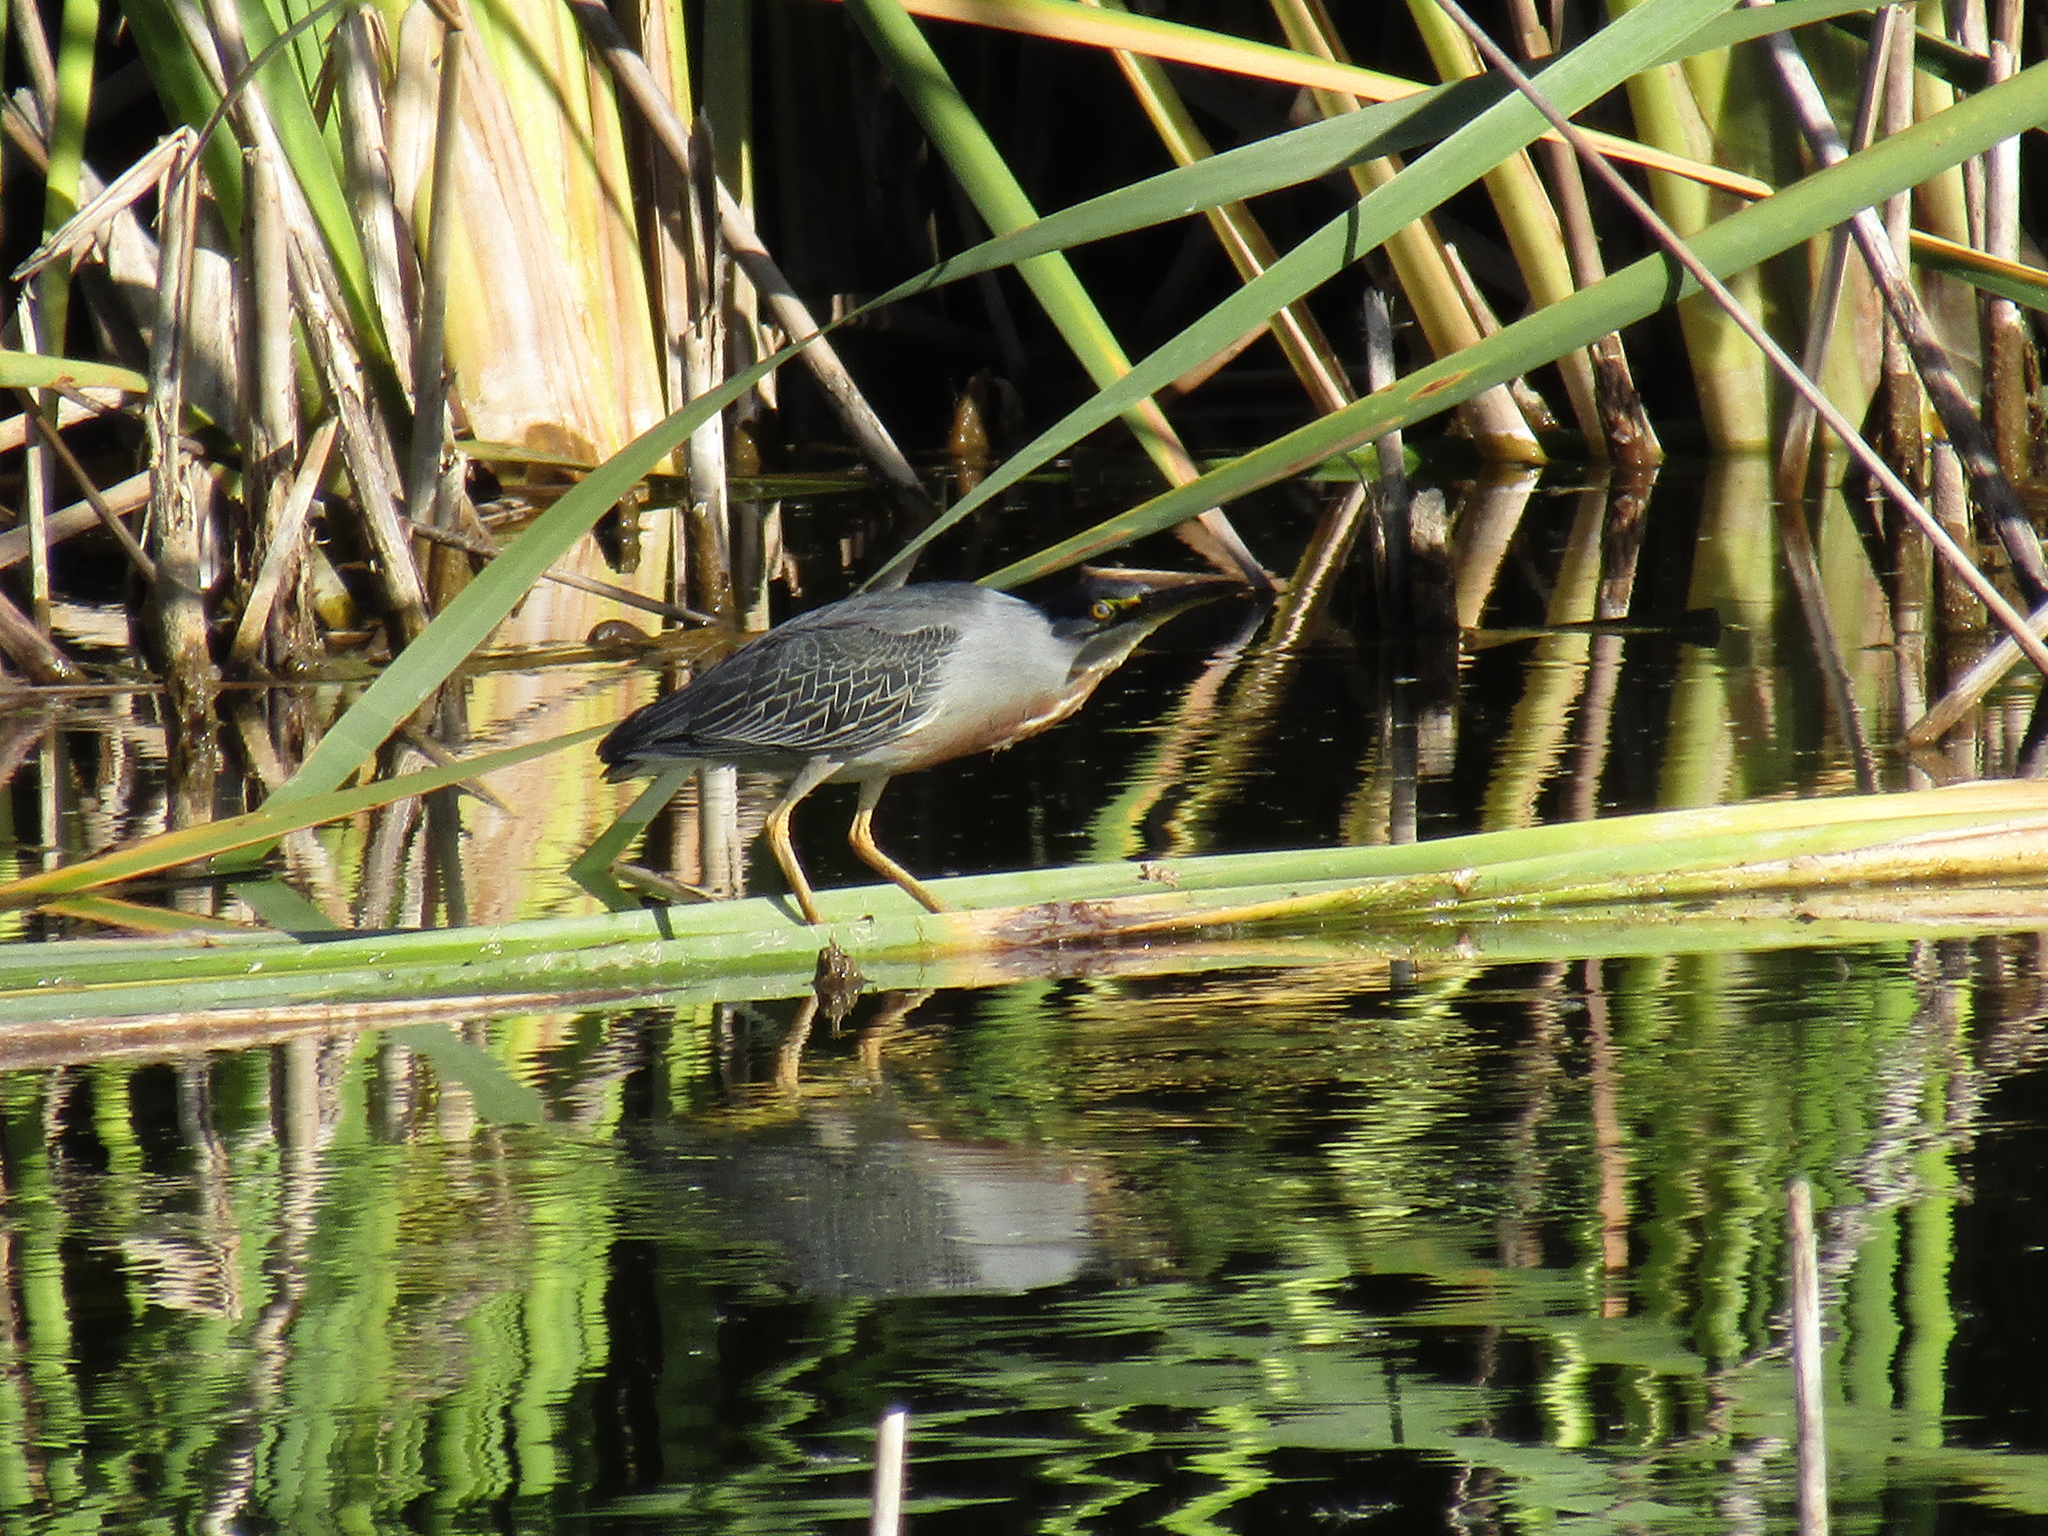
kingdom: Animalia
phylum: Chordata
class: Aves
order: Pelecaniformes
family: Ardeidae
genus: Butorides
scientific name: Butorides striata
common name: Striated heron
